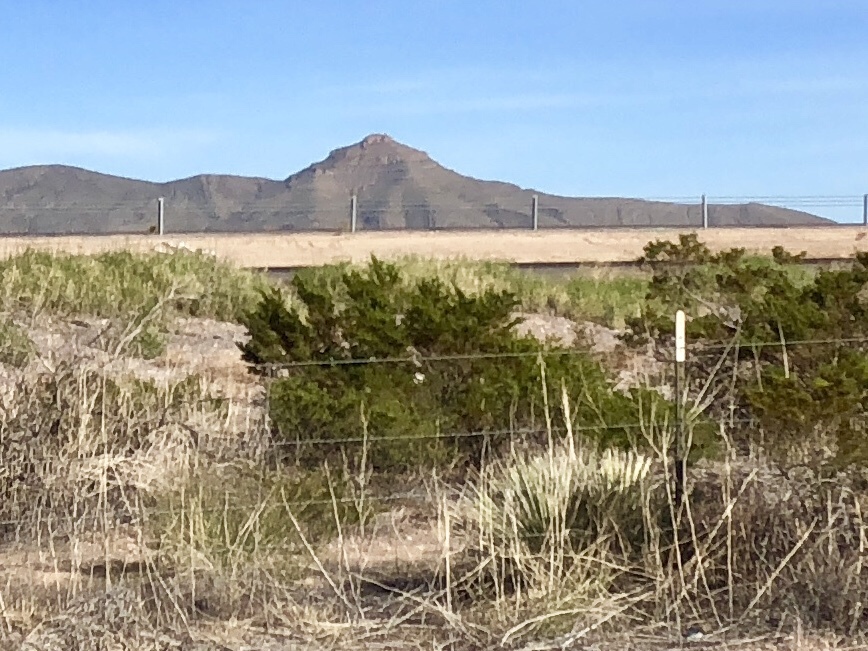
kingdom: Plantae
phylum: Tracheophyta
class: Magnoliopsida
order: Zygophyllales
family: Zygophyllaceae
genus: Larrea
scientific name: Larrea tridentata
